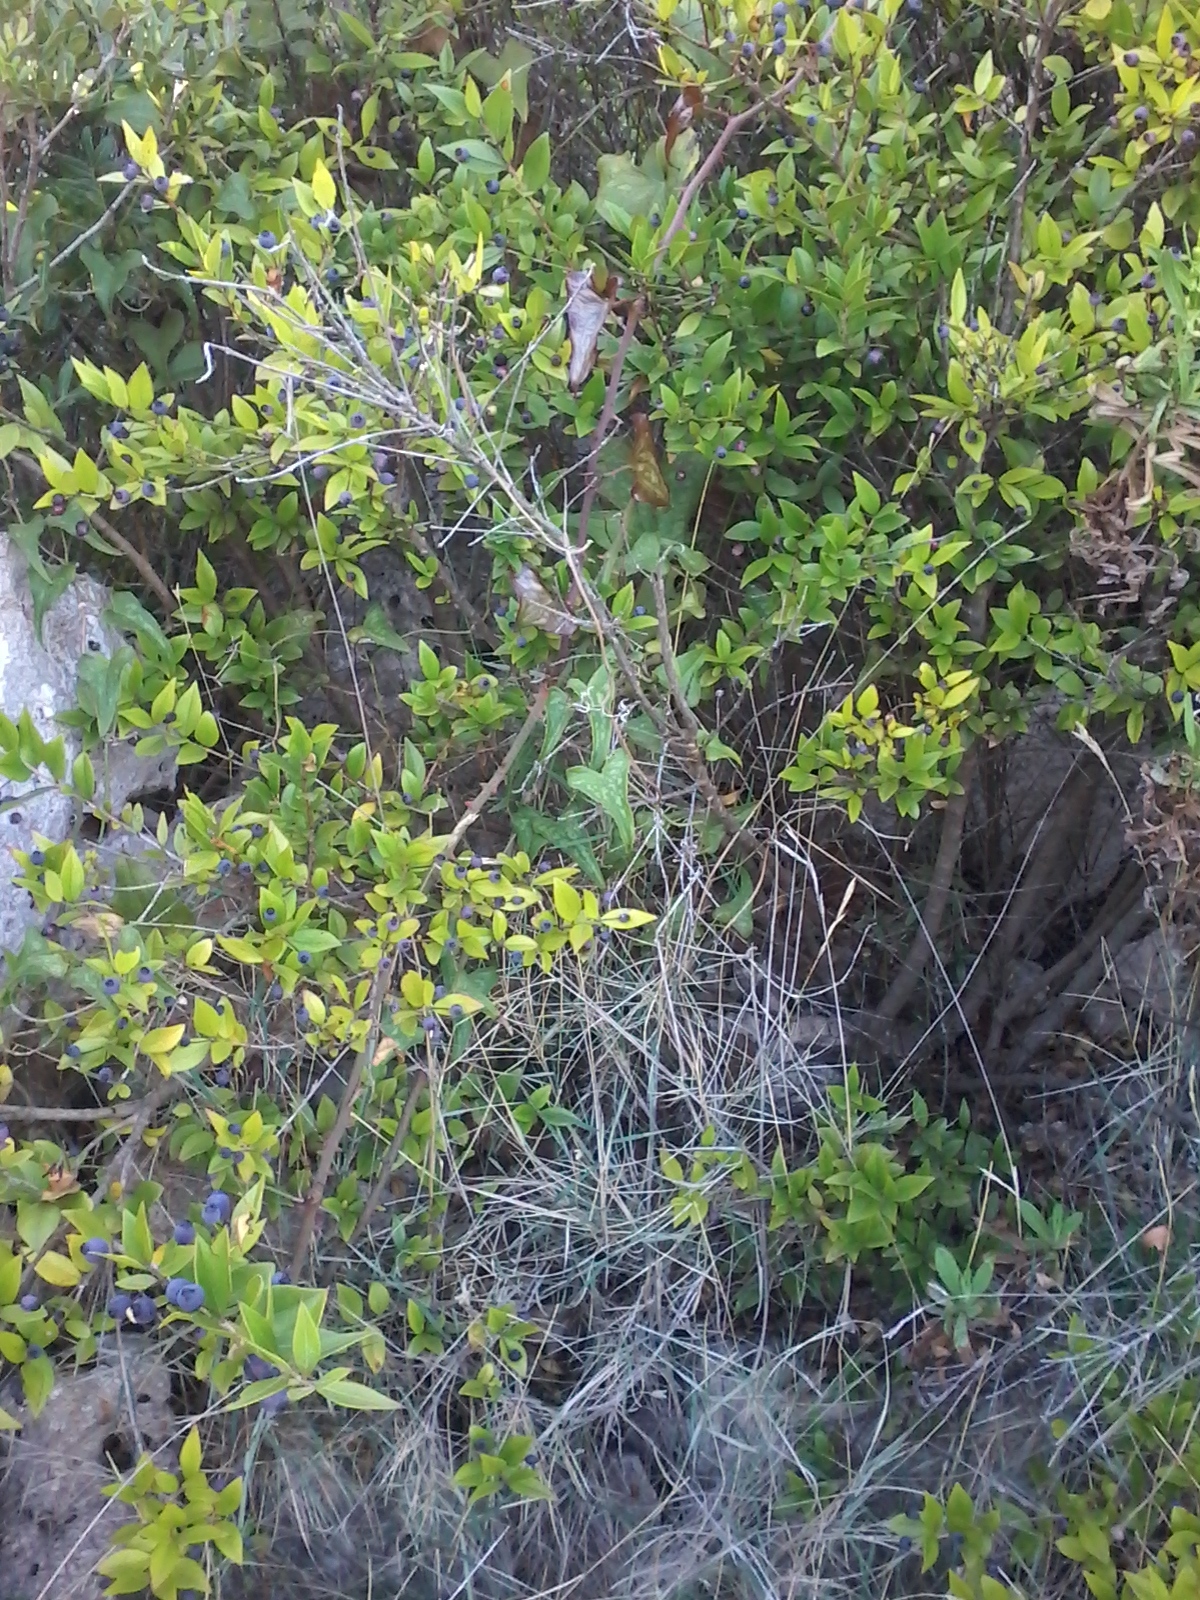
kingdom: Plantae
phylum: Tracheophyta
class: Magnoliopsida
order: Myrtales
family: Myrtaceae
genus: Myrtus
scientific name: Myrtus communis
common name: Myrtle
